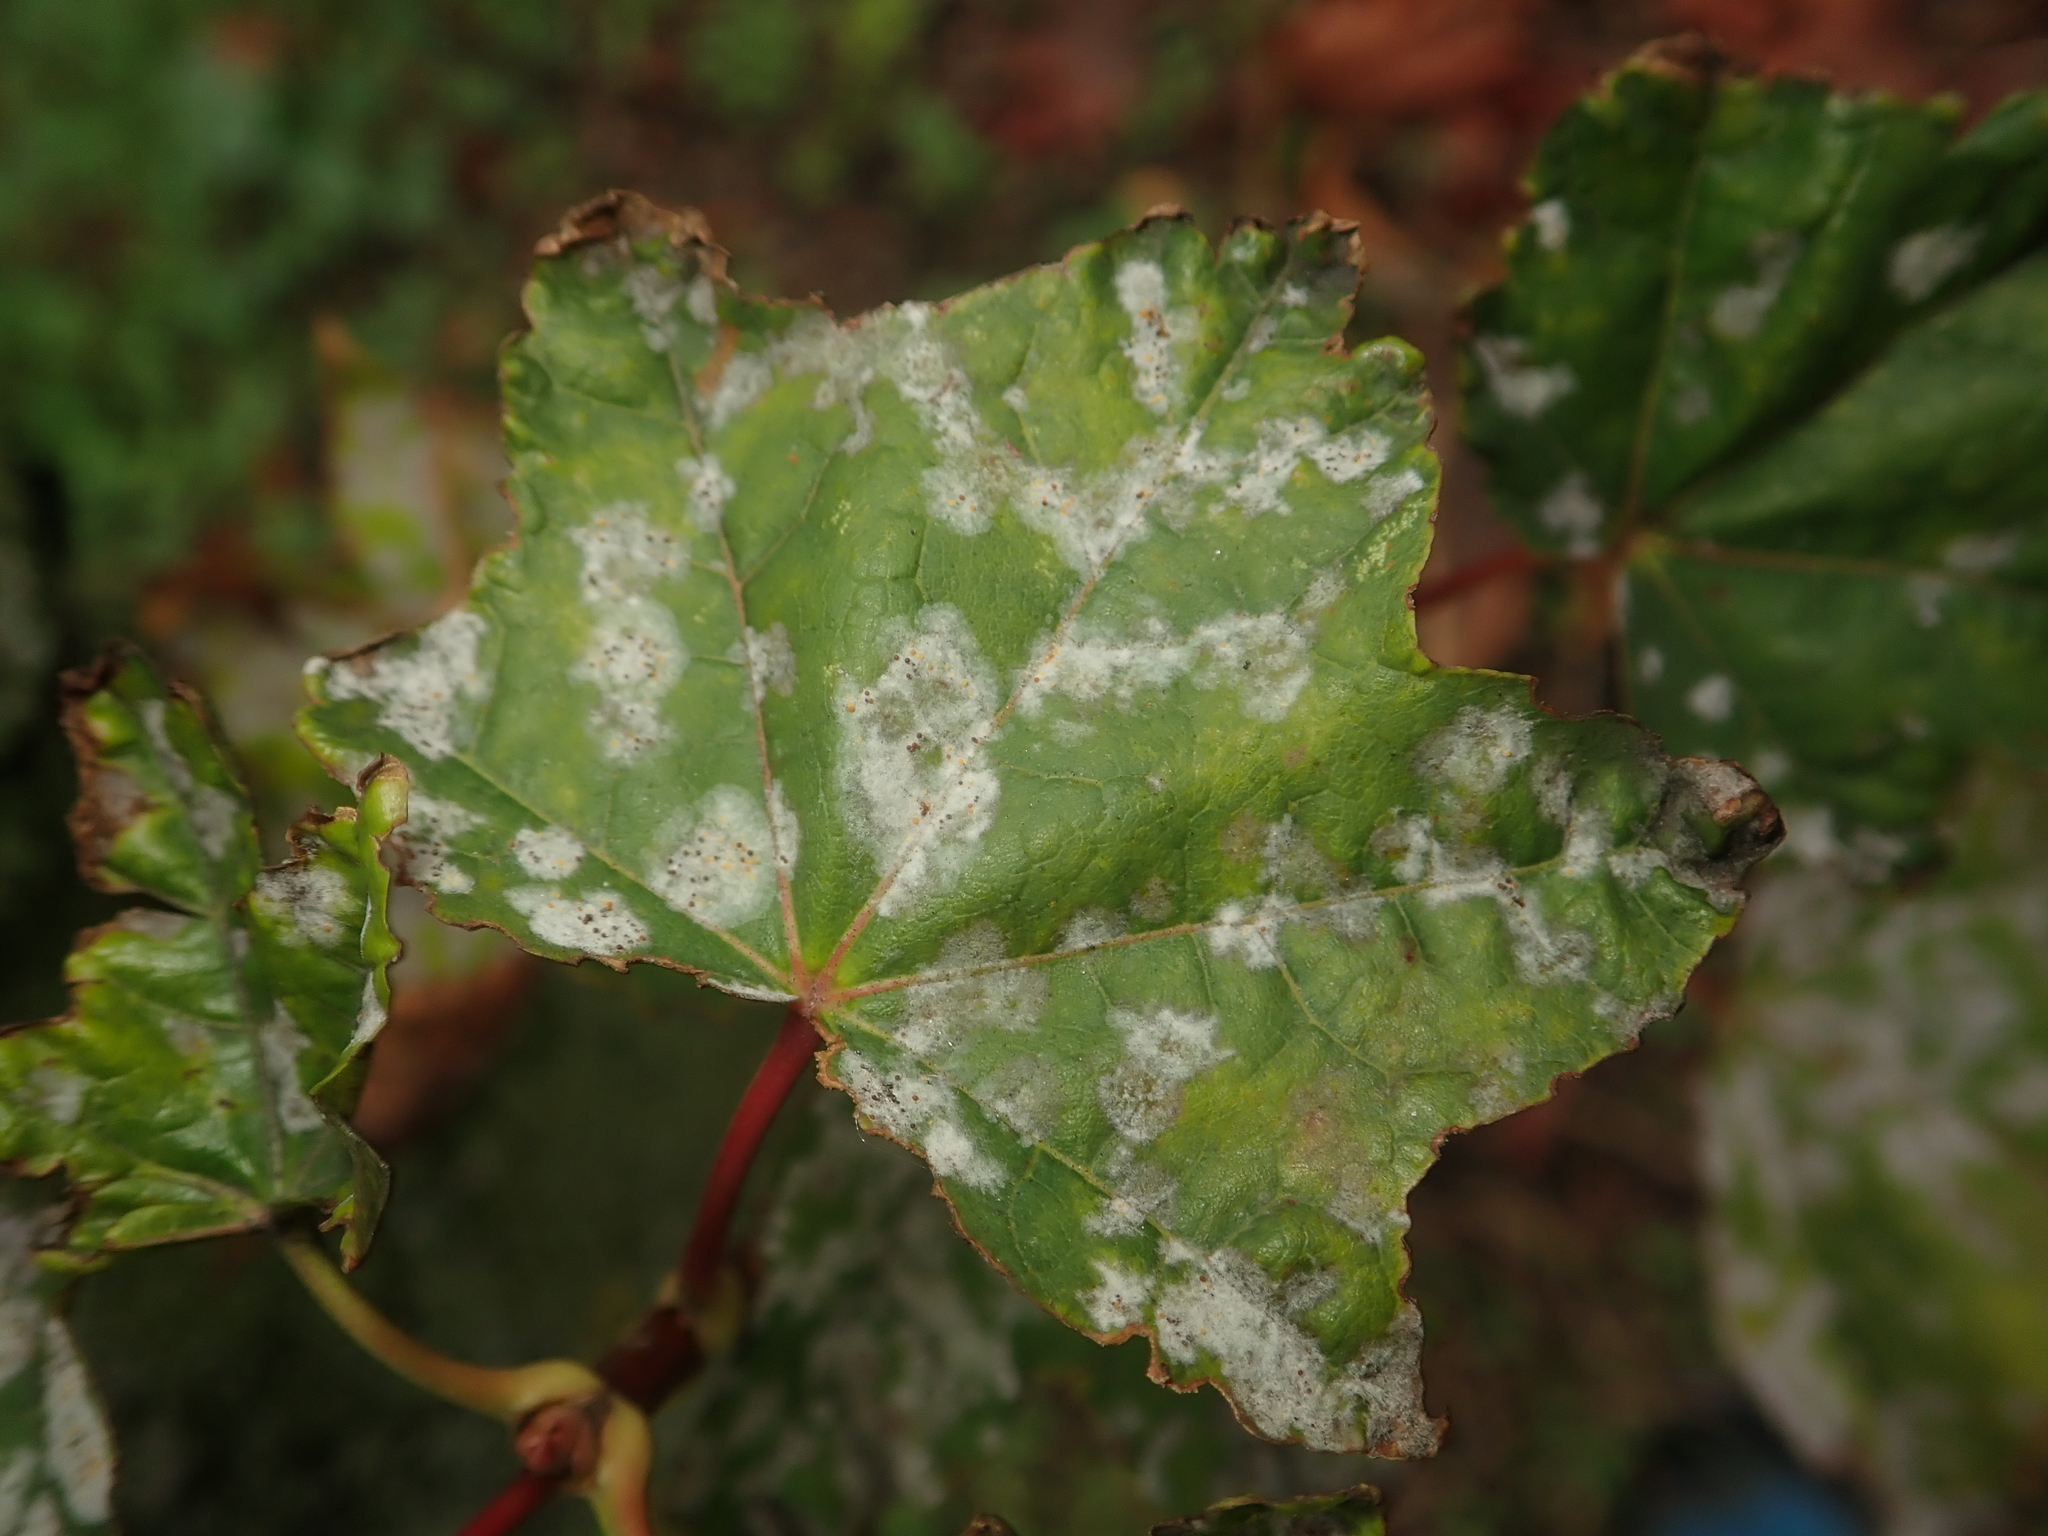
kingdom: Fungi
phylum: Ascomycota
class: Leotiomycetes
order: Helotiales
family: Erysiphaceae
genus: Sawadaea
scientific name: Sawadaea tulasnei
